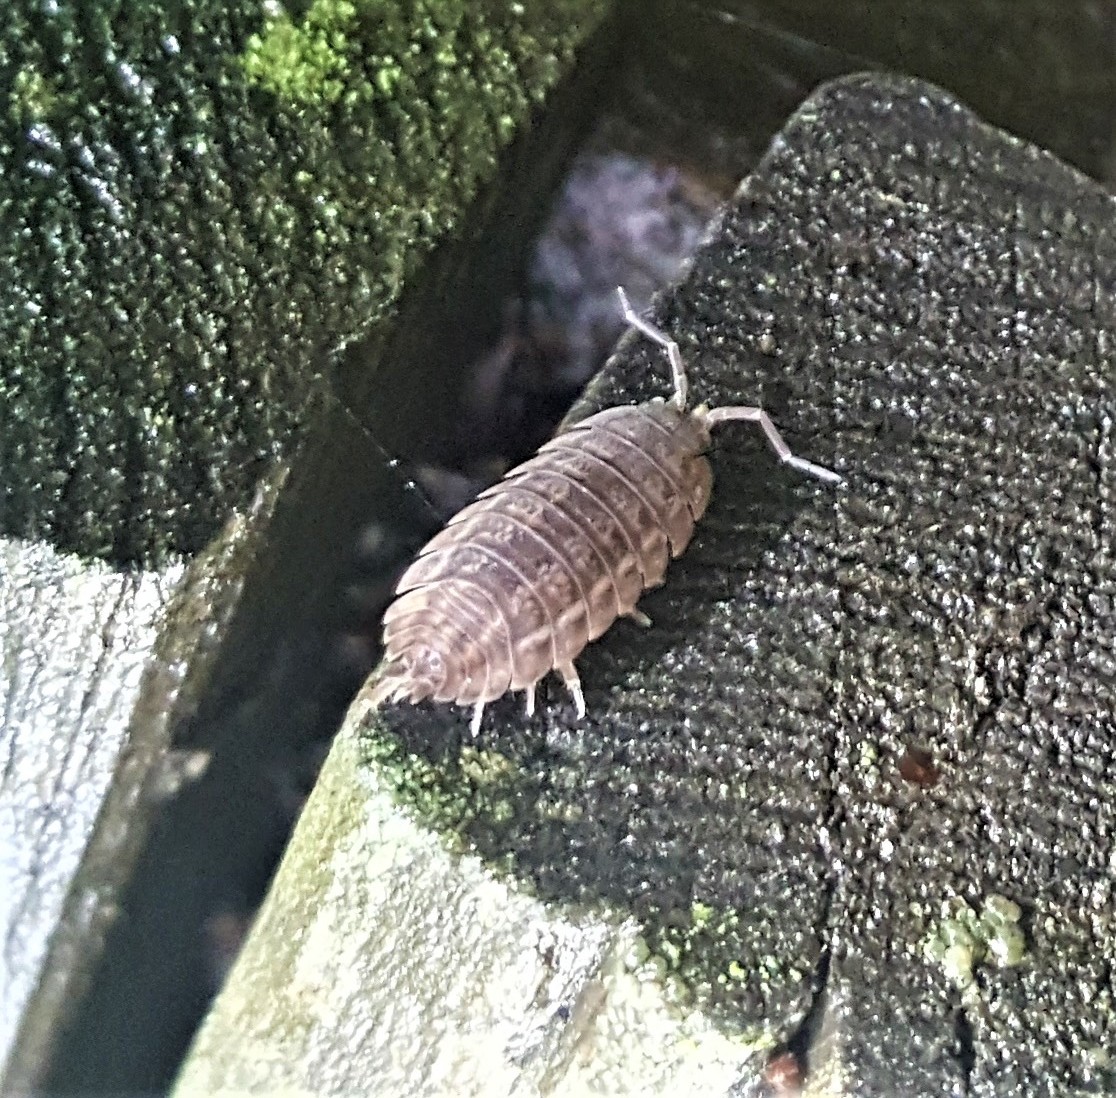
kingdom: Animalia
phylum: Arthropoda
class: Malacostraca
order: Isopoda
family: Trachelipodidae
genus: Trachelipus
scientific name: Trachelipus rathkii
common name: Isopod
